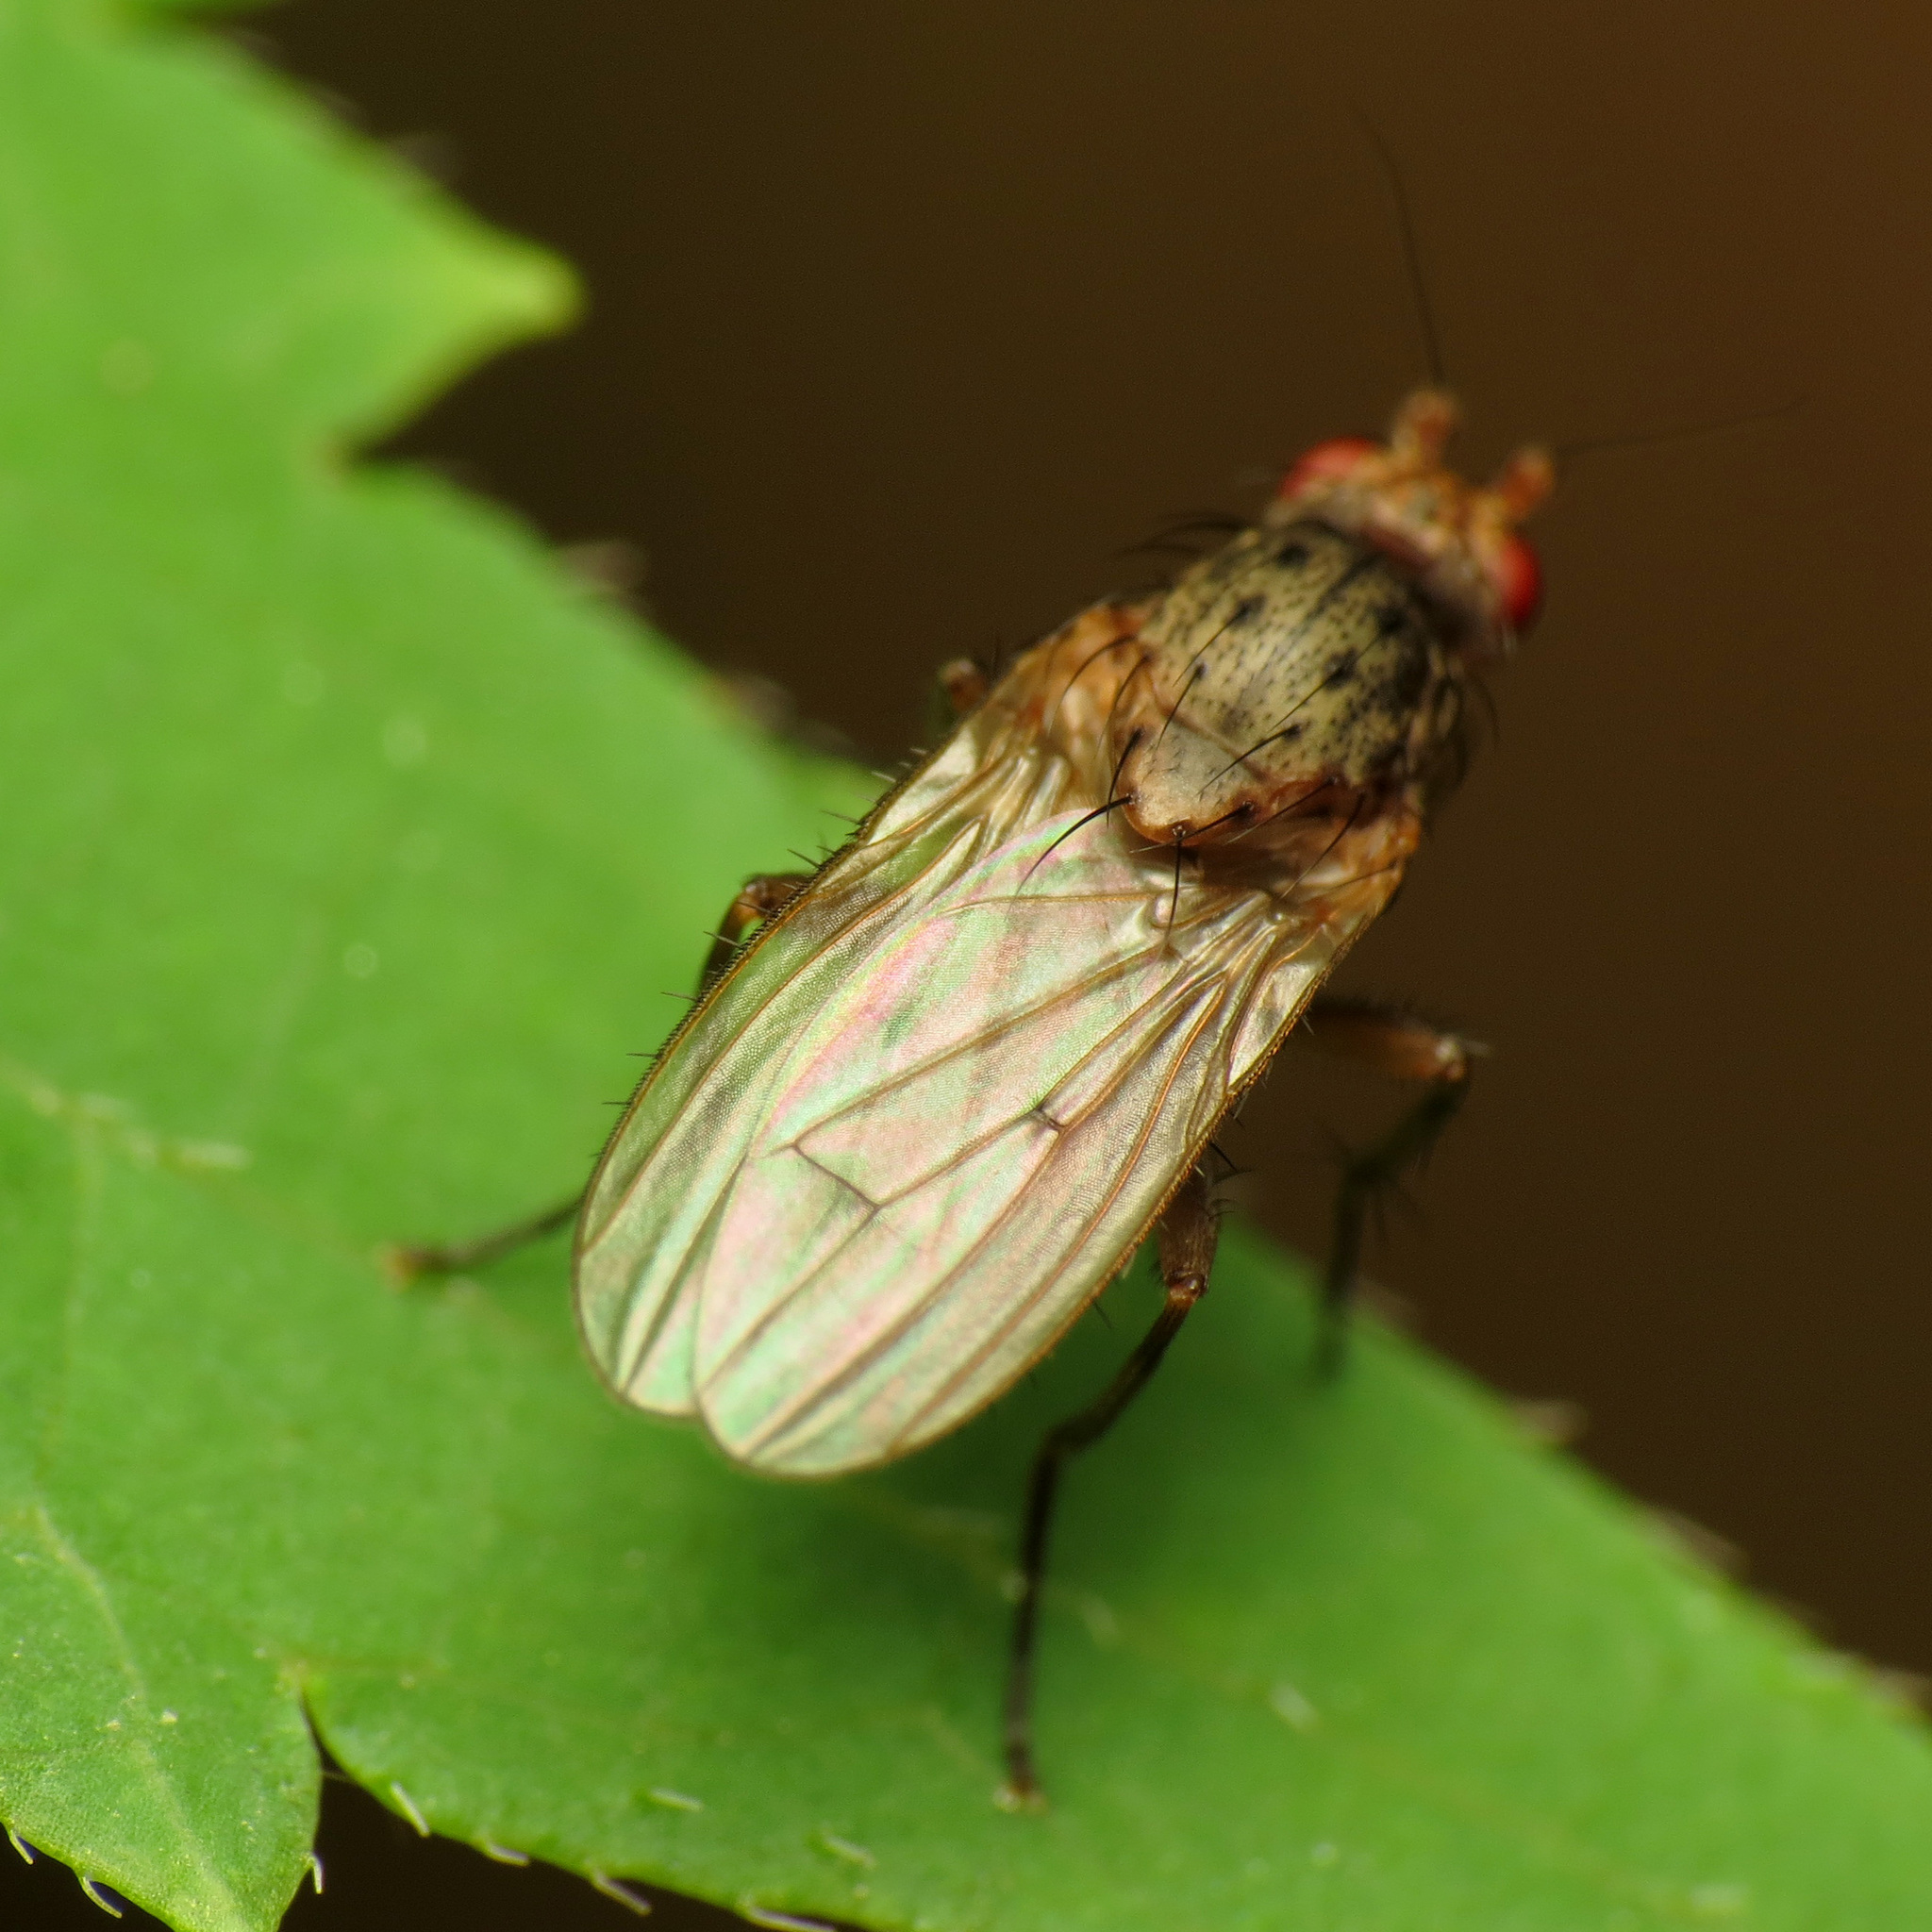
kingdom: Animalia
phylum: Arthropoda
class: Insecta
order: Diptera
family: Heleomyzidae
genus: Oecothea
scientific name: Oecothea
